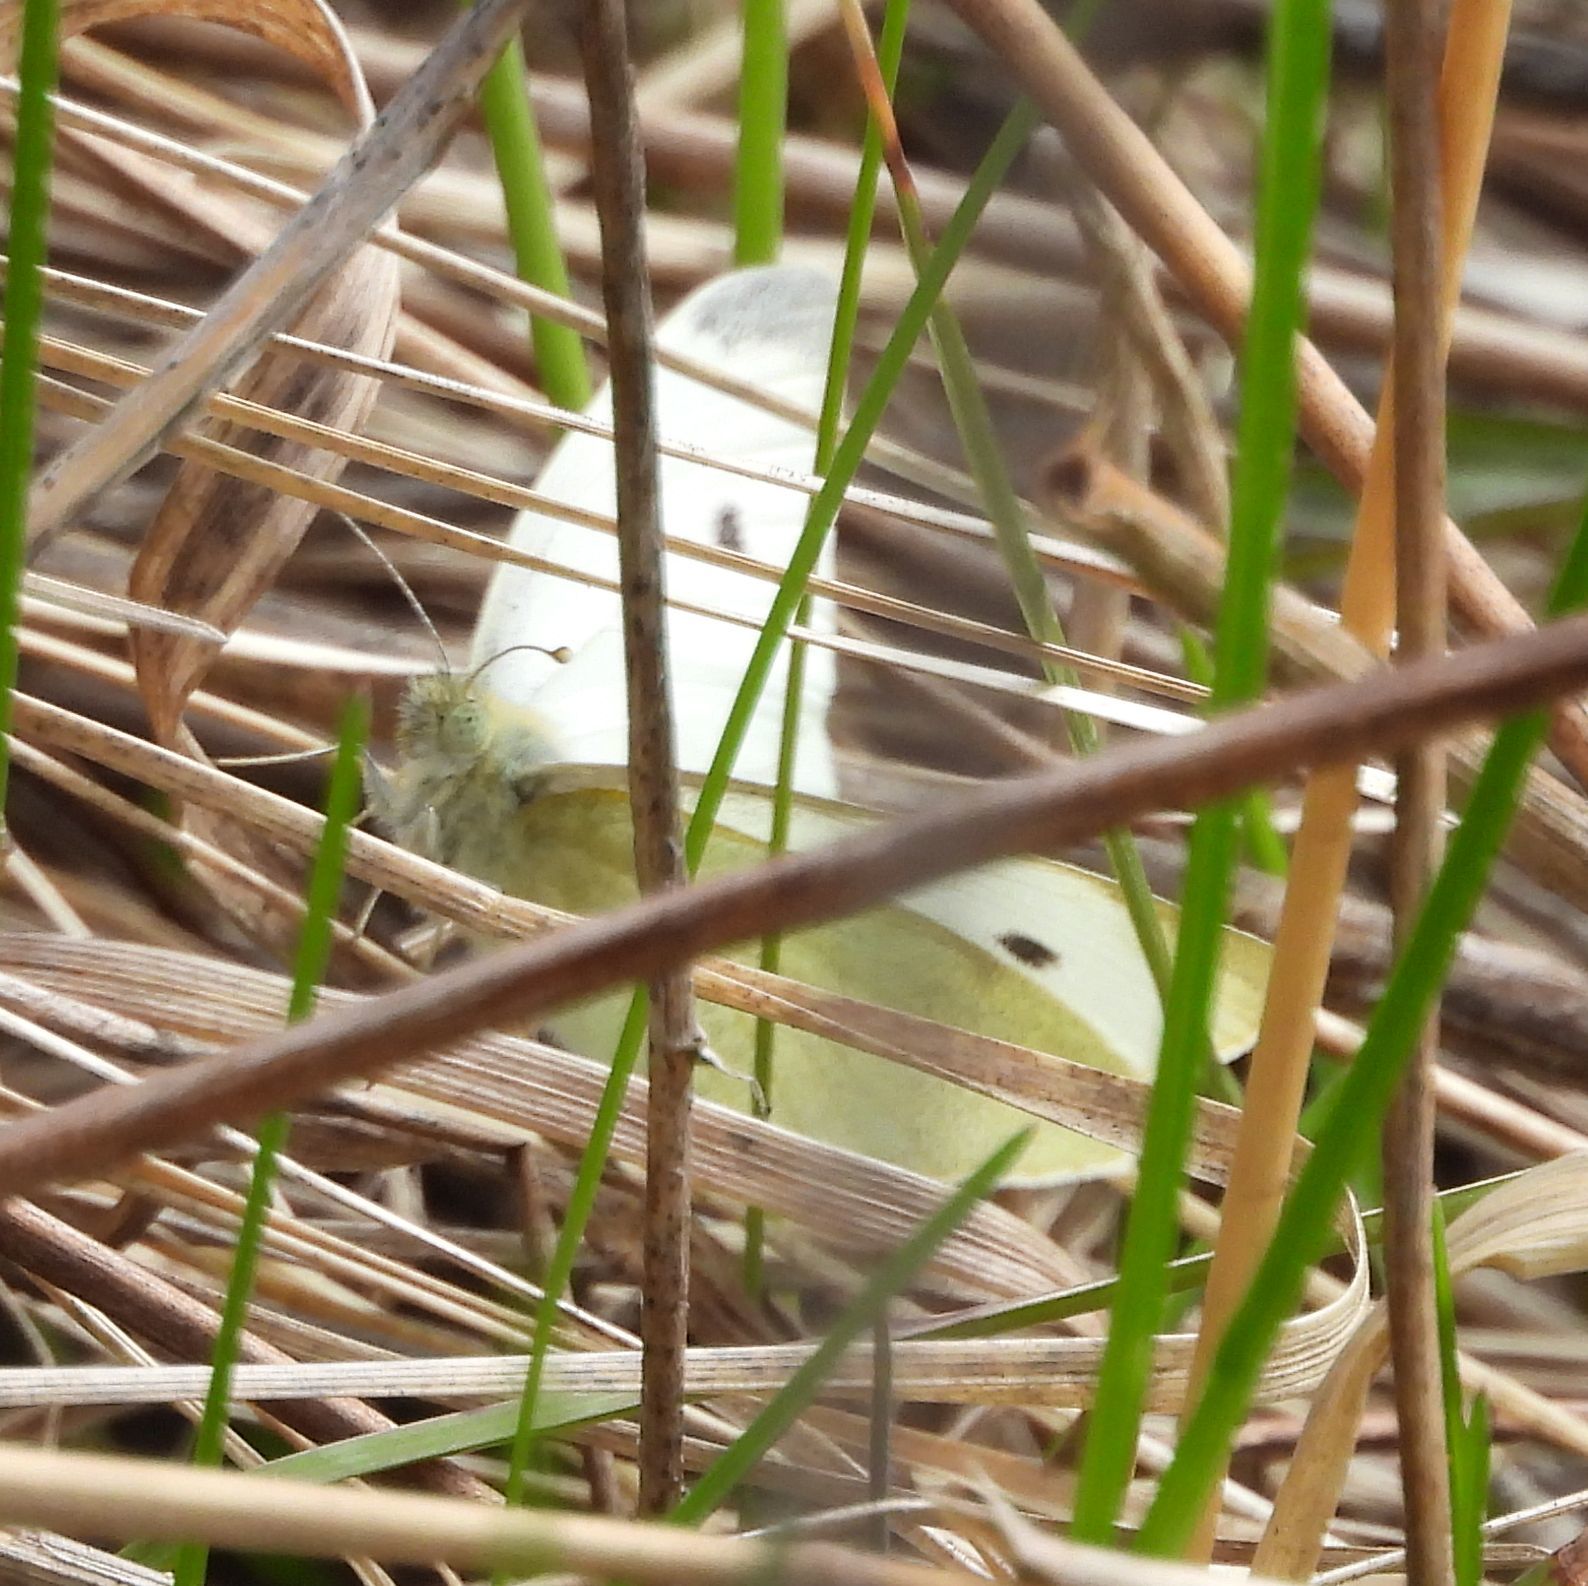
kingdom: Animalia
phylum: Arthropoda
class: Insecta
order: Lepidoptera
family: Pieridae
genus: Pieris
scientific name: Pieris rapae
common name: Small white
